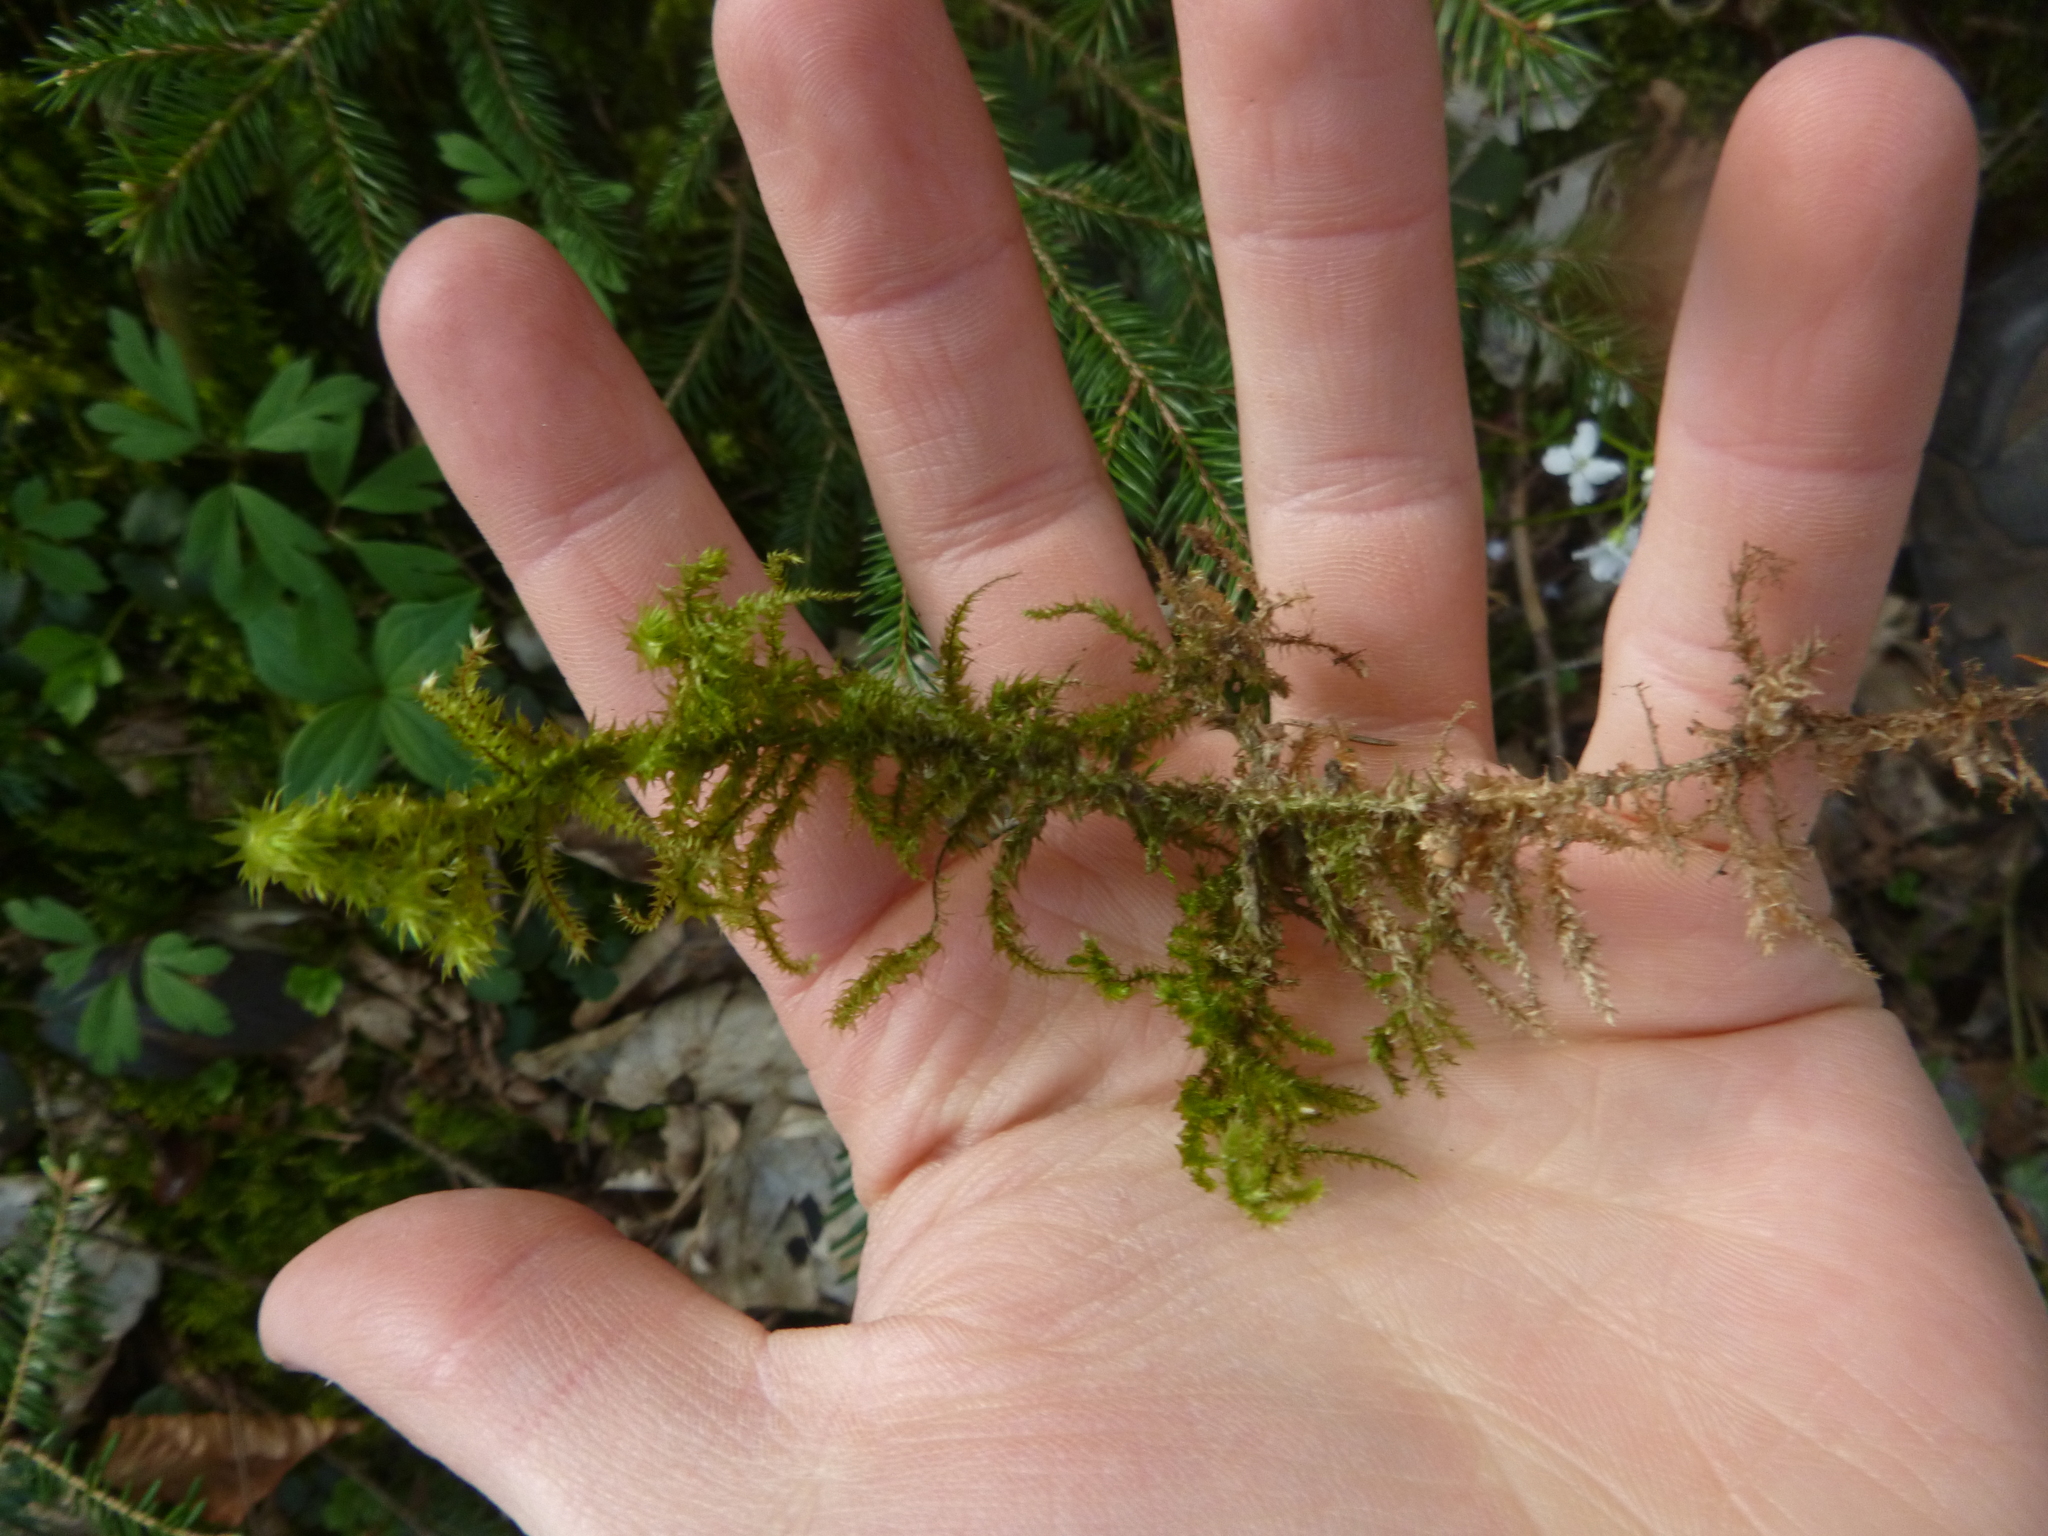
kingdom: Plantae
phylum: Bryophyta
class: Bryopsida
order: Hypnales
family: Hylocomiaceae
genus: Hylocomiadelphus
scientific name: Hylocomiadelphus triquetrus
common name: Rough goose neck moss
